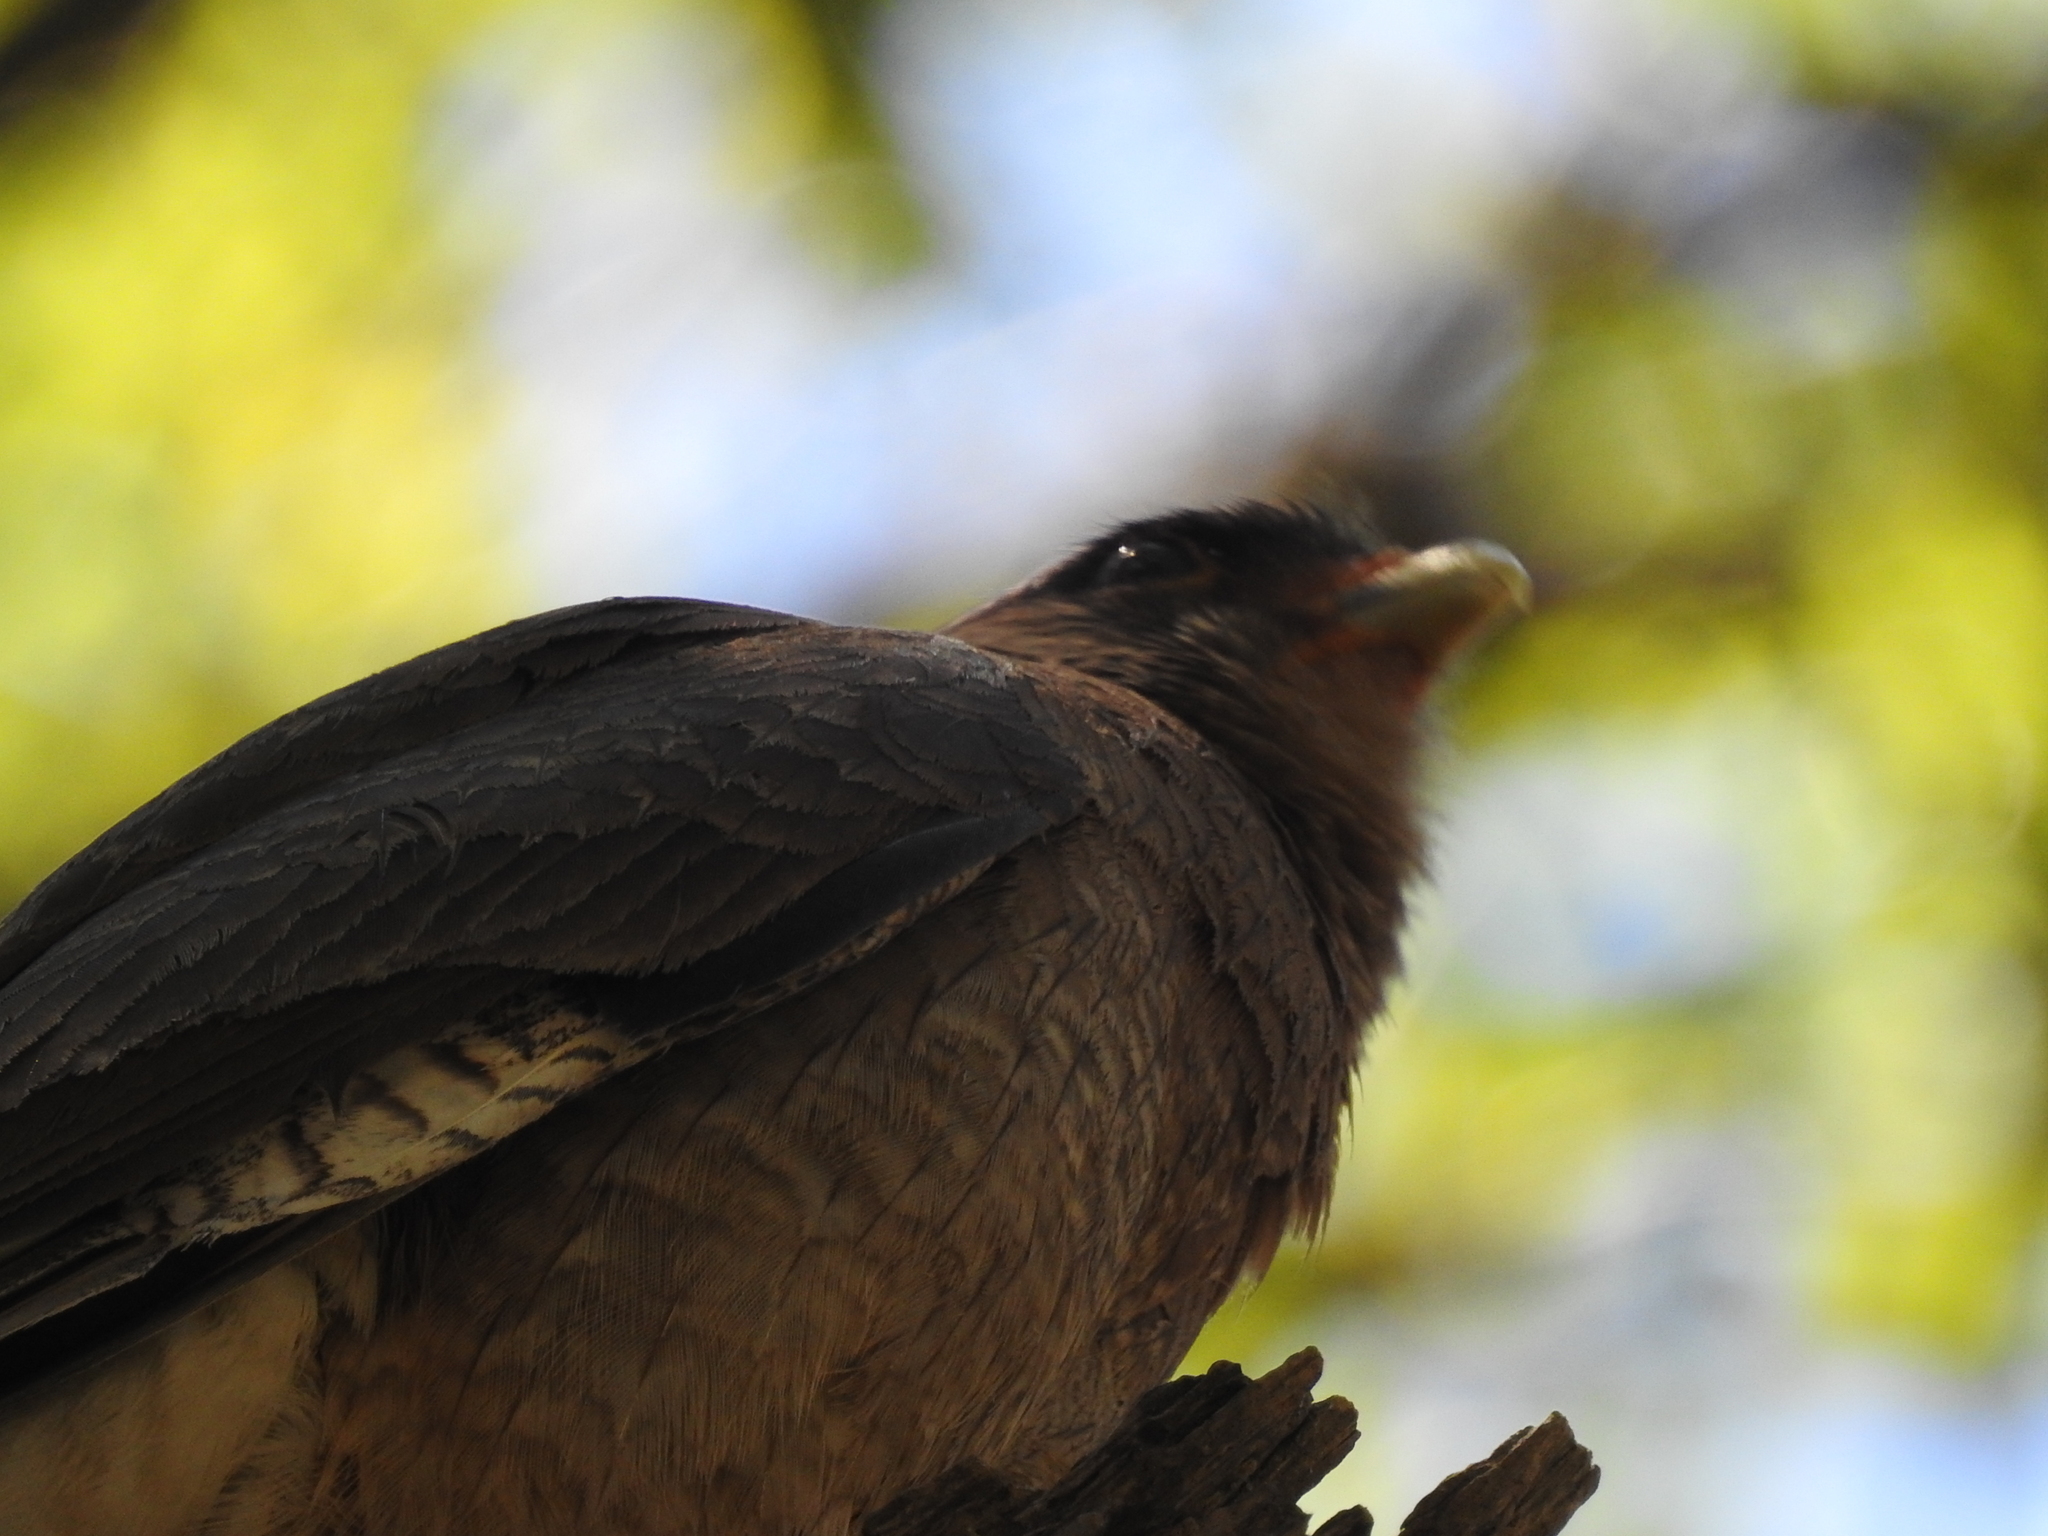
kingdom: Animalia
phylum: Chordata
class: Aves
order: Falconiformes
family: Falconidae
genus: Daptrius
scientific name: Daptrius
